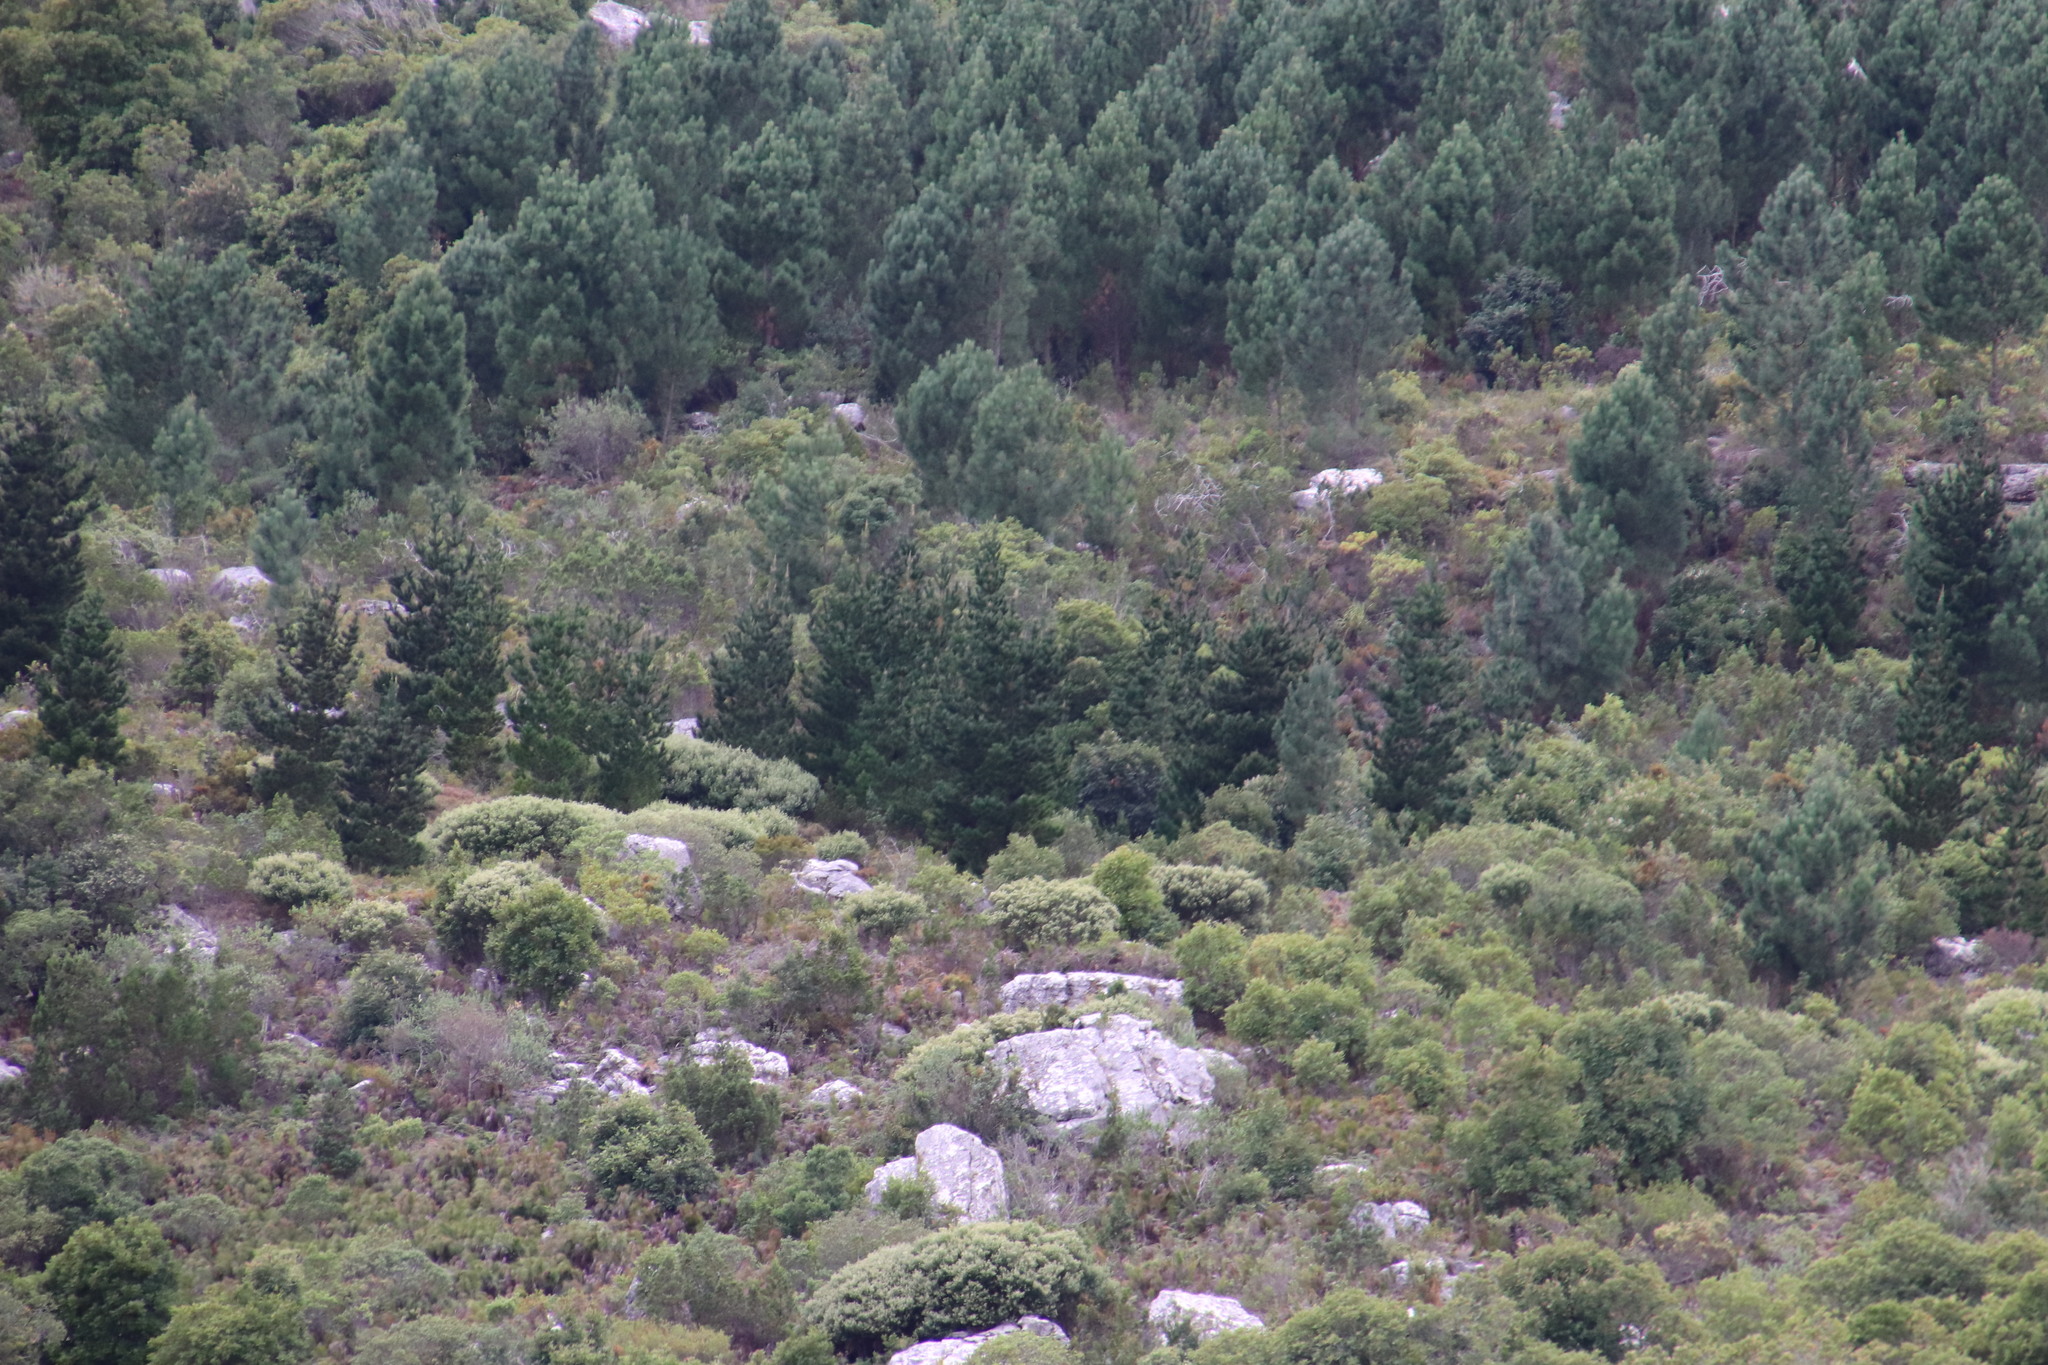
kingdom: Plantae
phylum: Tracheophyta
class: Pinopsida
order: Pinales
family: Pinaceae
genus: Pinus
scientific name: Pinus radiata
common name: Monterey pine
